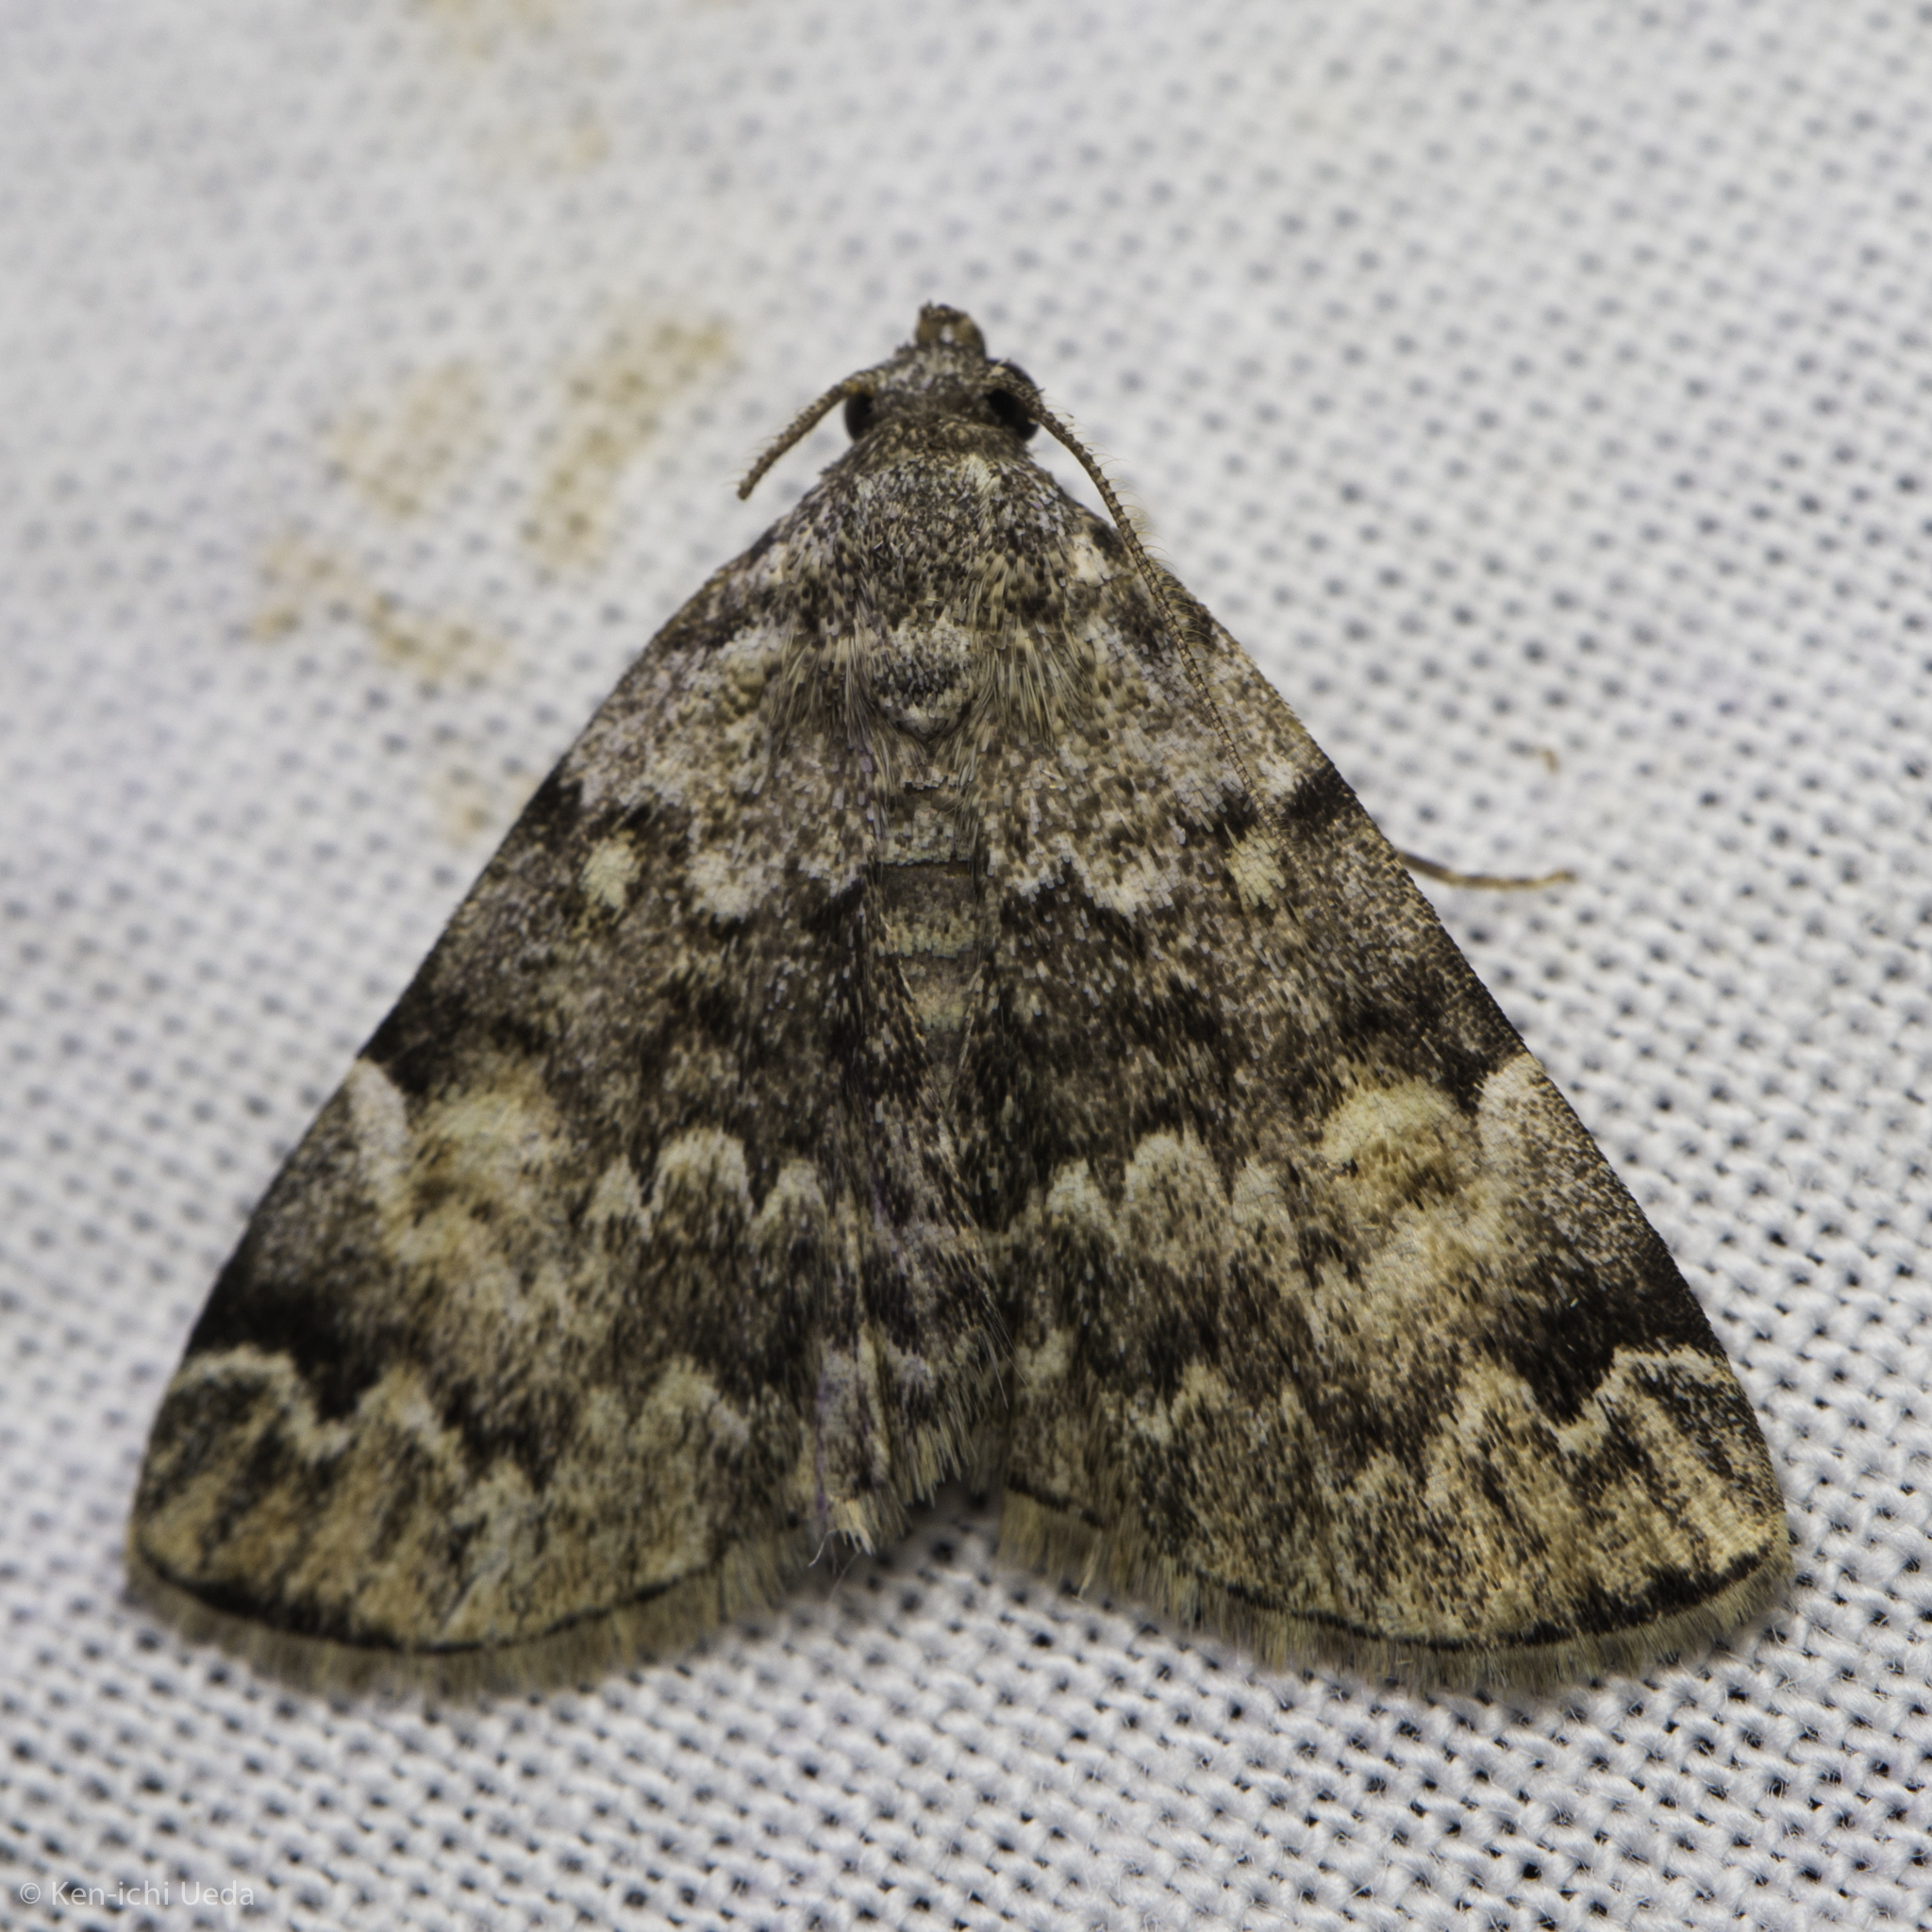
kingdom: Animalia
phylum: Arthropoda
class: Insecta
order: Lepidoptera
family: Erebidae
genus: Idia
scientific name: Idia americalis
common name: American idia moth
